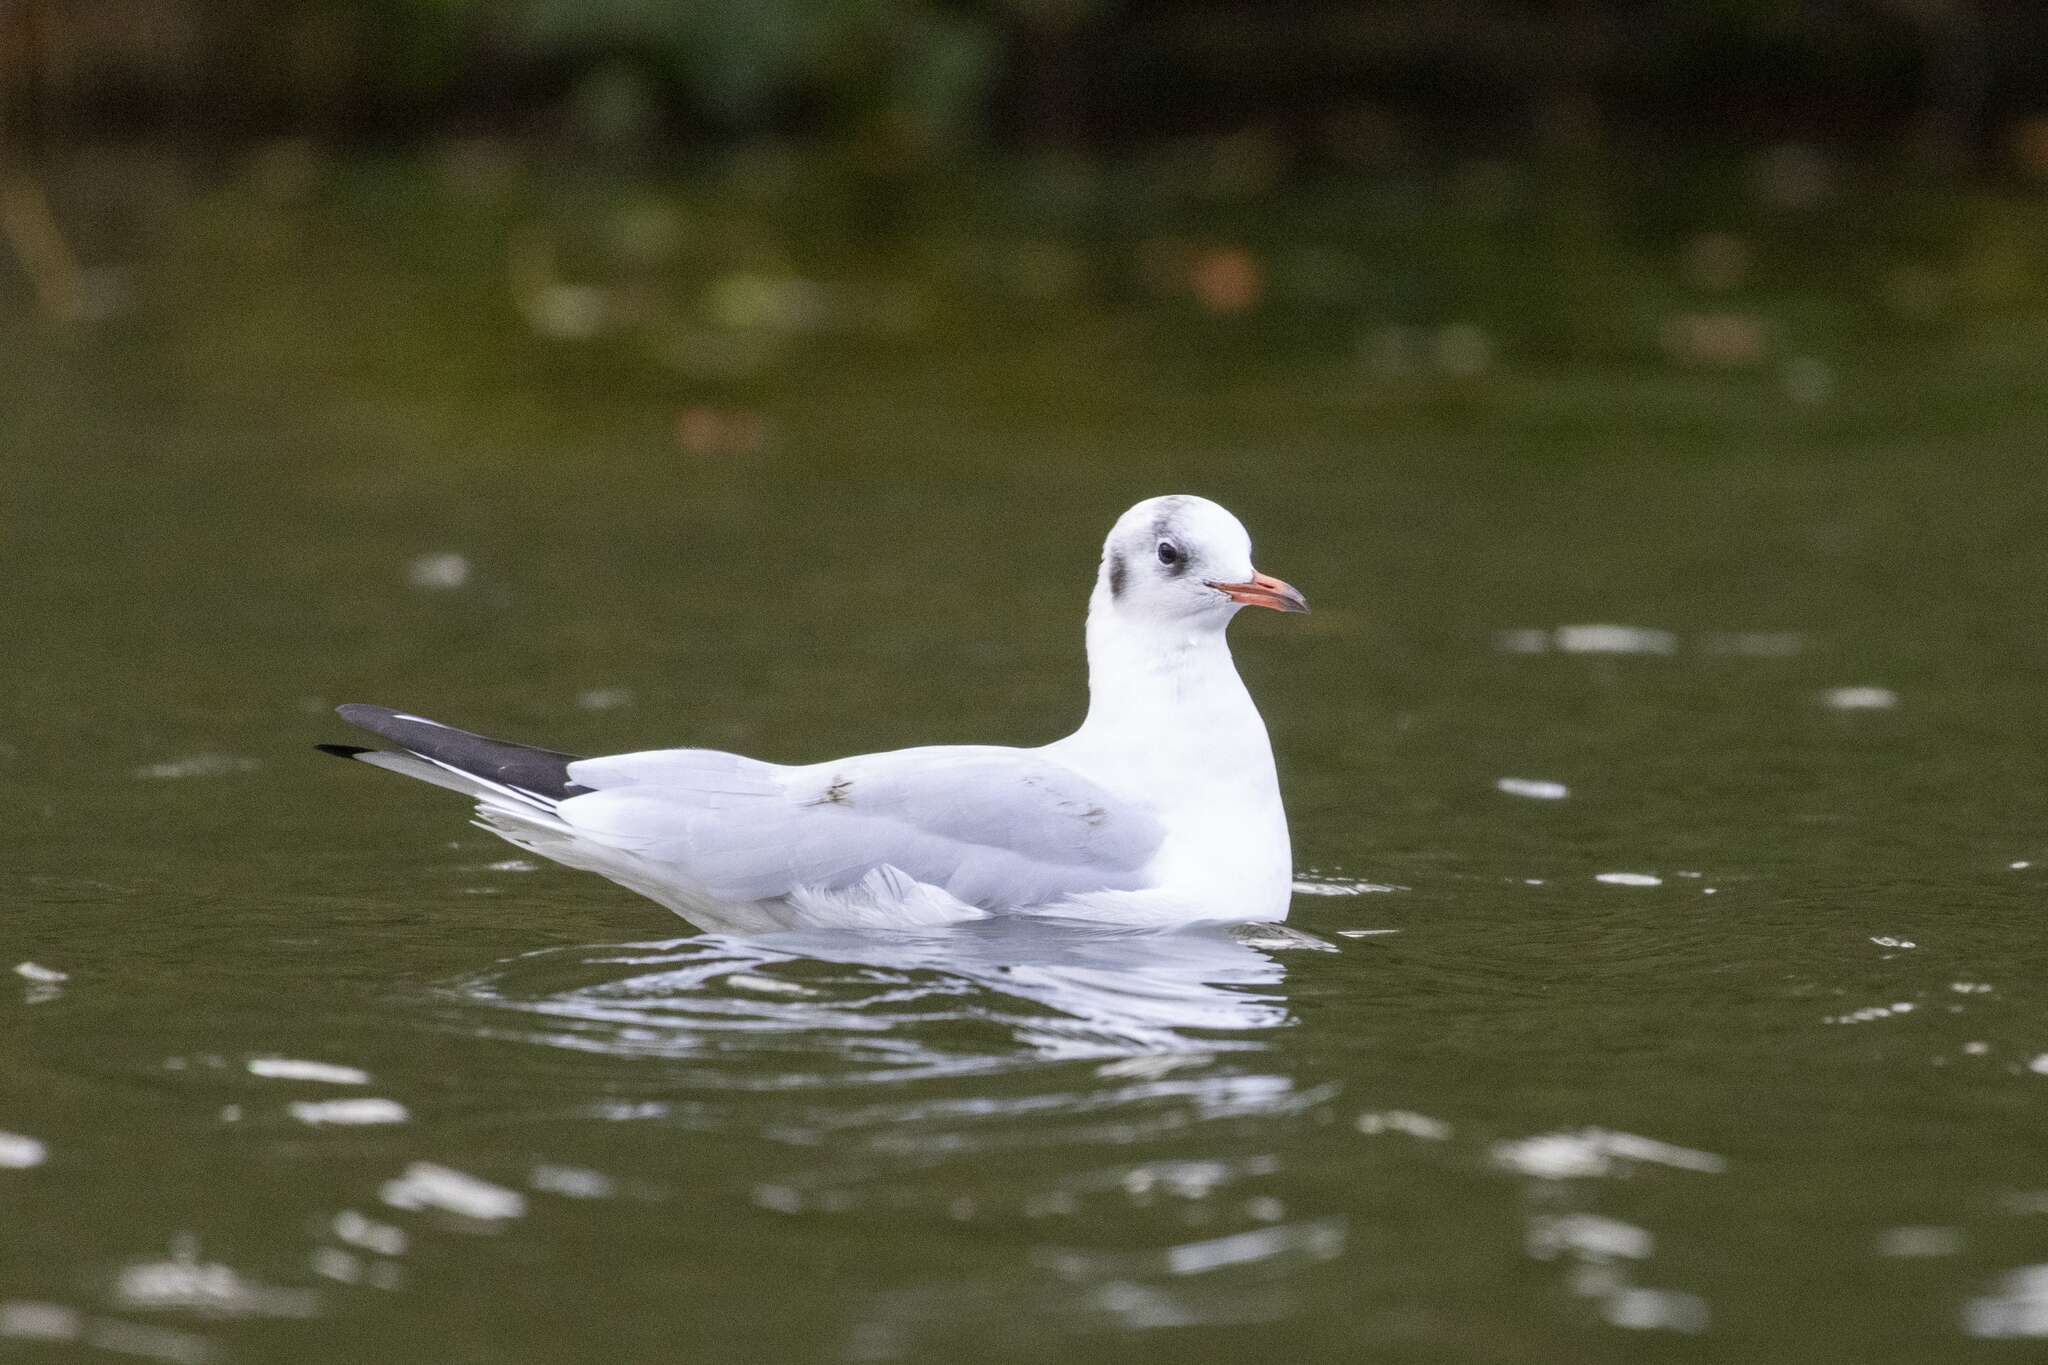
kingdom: Animalia
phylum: Chordata
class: Aves
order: Charadriiformes
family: Laridae
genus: Chroicocephalus
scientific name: Chroicocephalus ridibundus
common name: Black-headed gull
